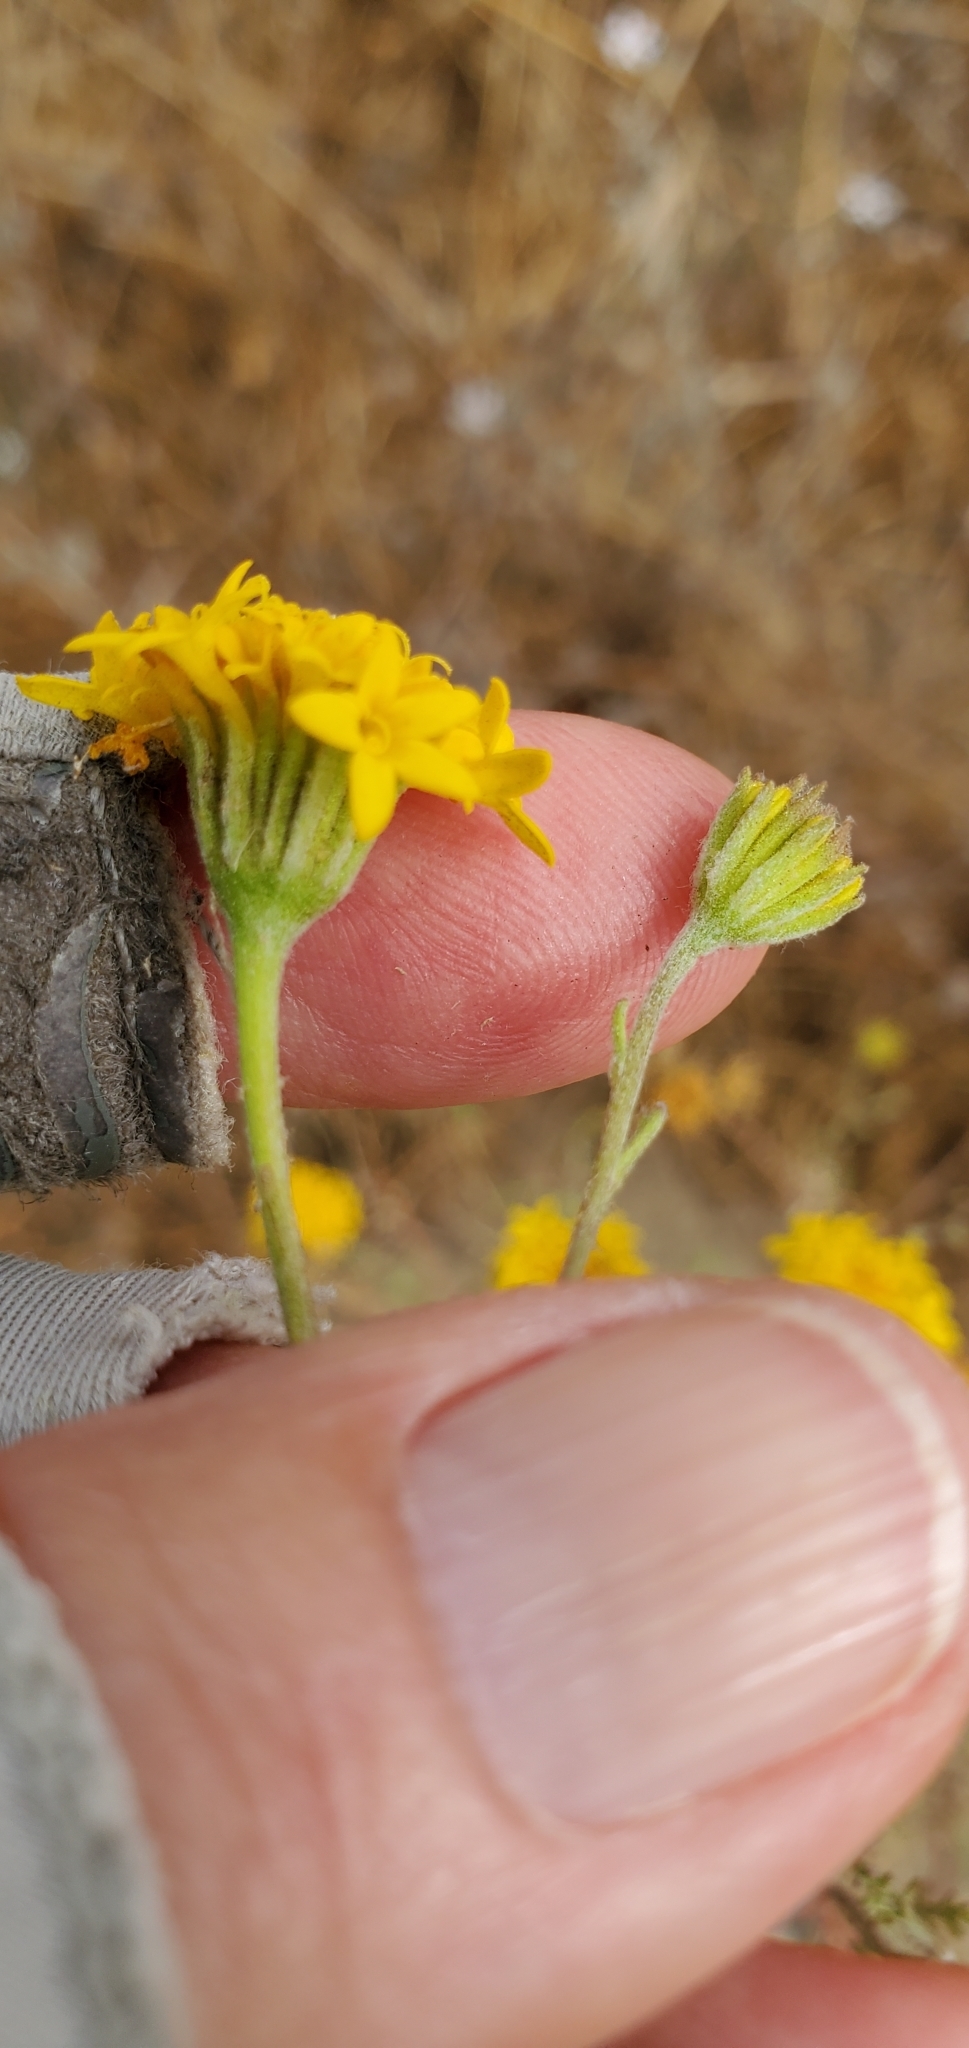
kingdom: Plantae
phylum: Tracheophyta
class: Magnoliopsida
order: Asterales
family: Asteraceae
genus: Chaenactis
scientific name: Chaenactis glabriuscula
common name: Yellow pincushion
